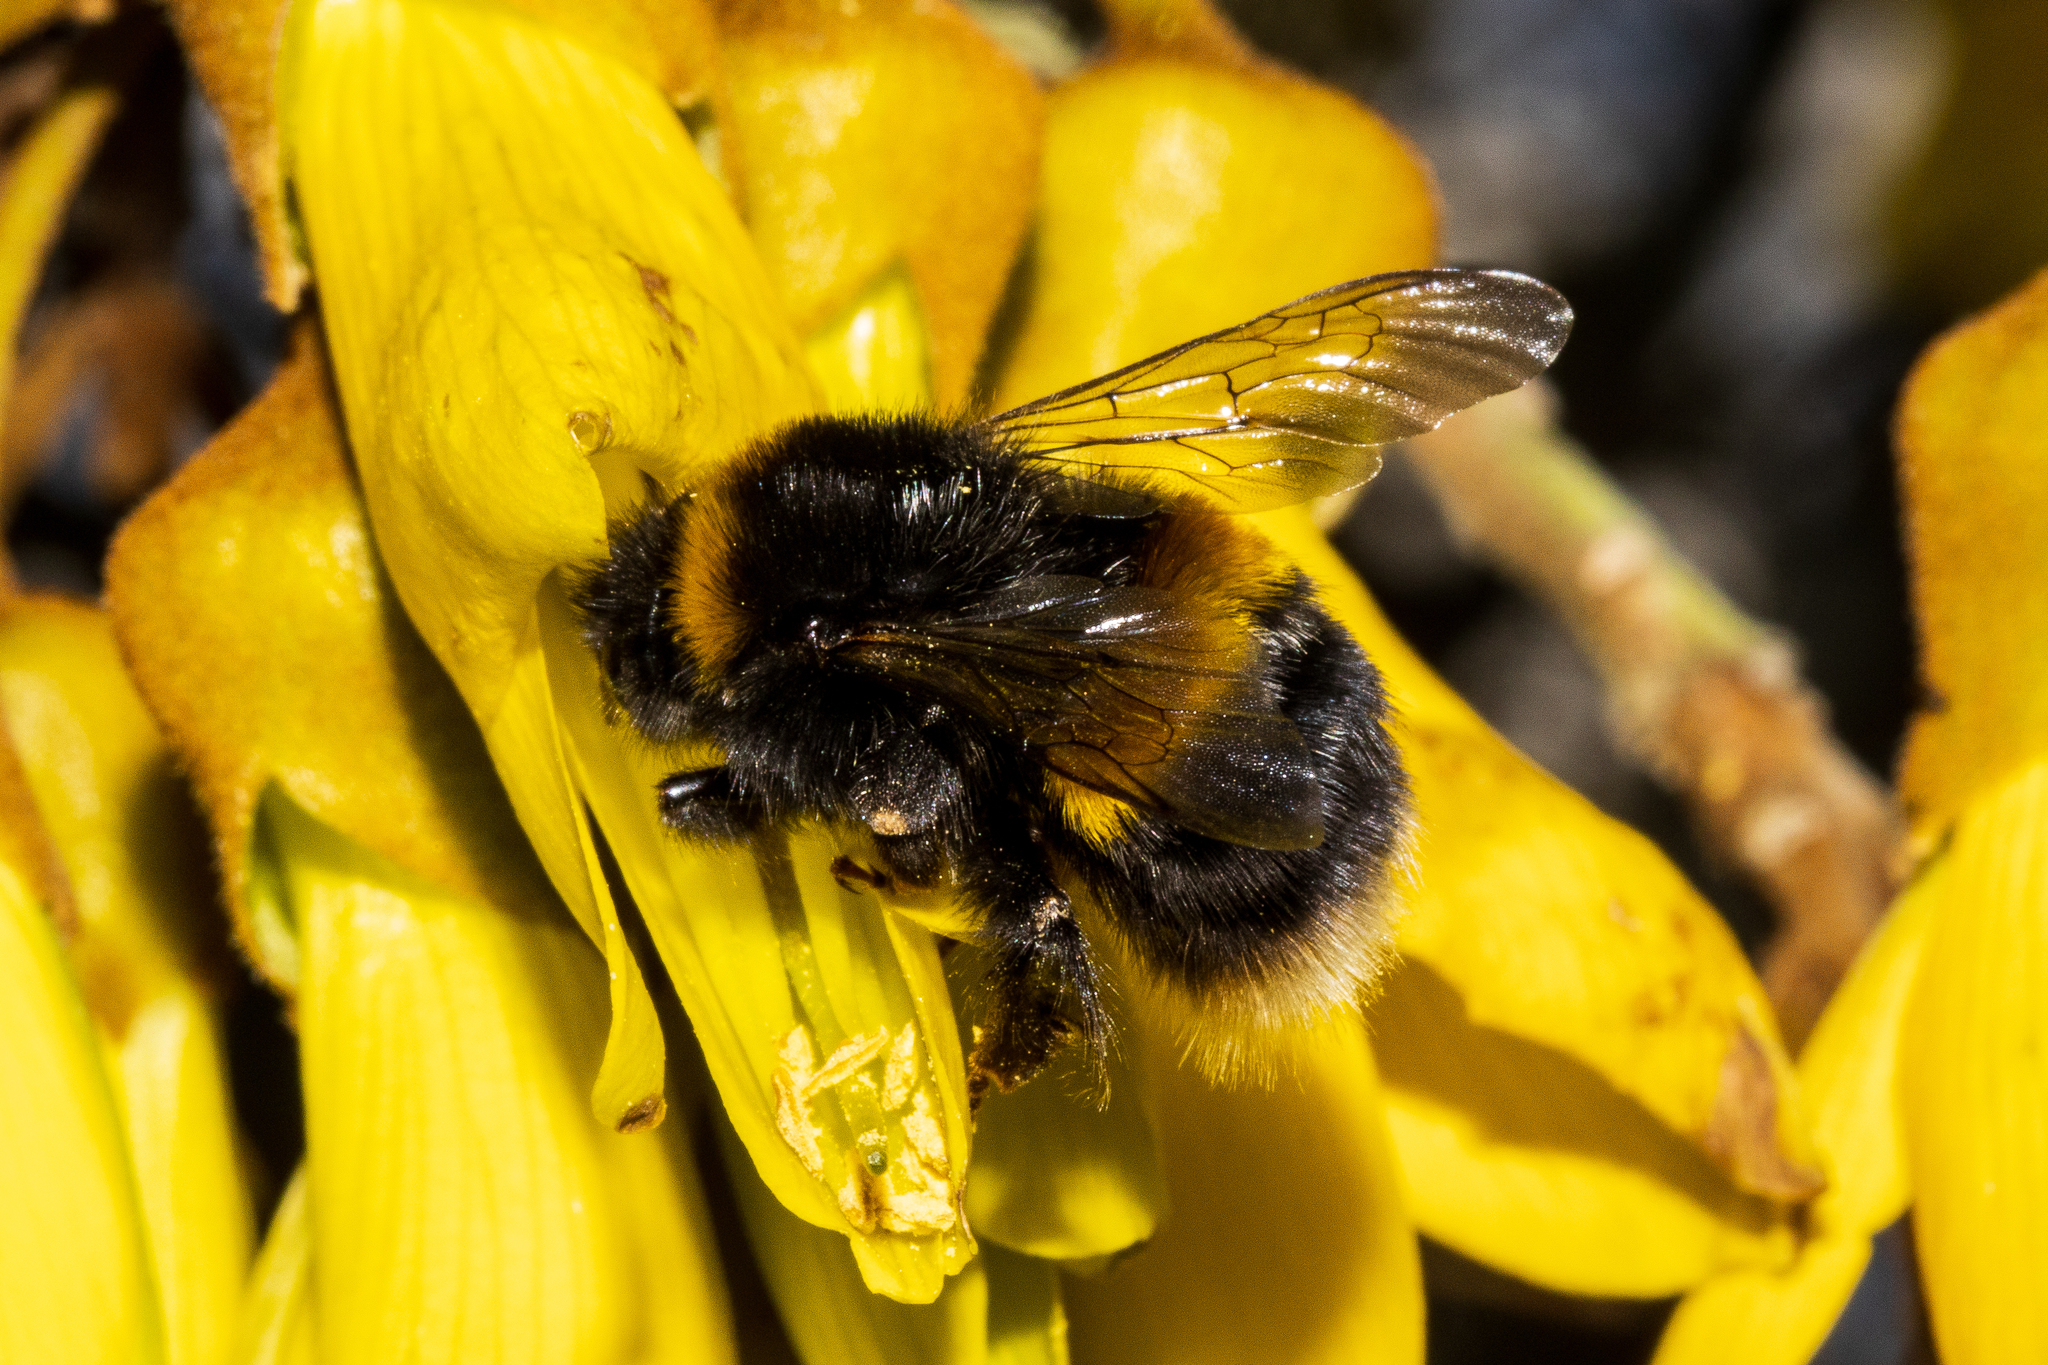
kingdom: Animalia
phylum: Arthropoda
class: Insecta
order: Hymenoptera
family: Apidae
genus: Bombus
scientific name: Bombus terrestris
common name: Buff-tailed bumblebee
